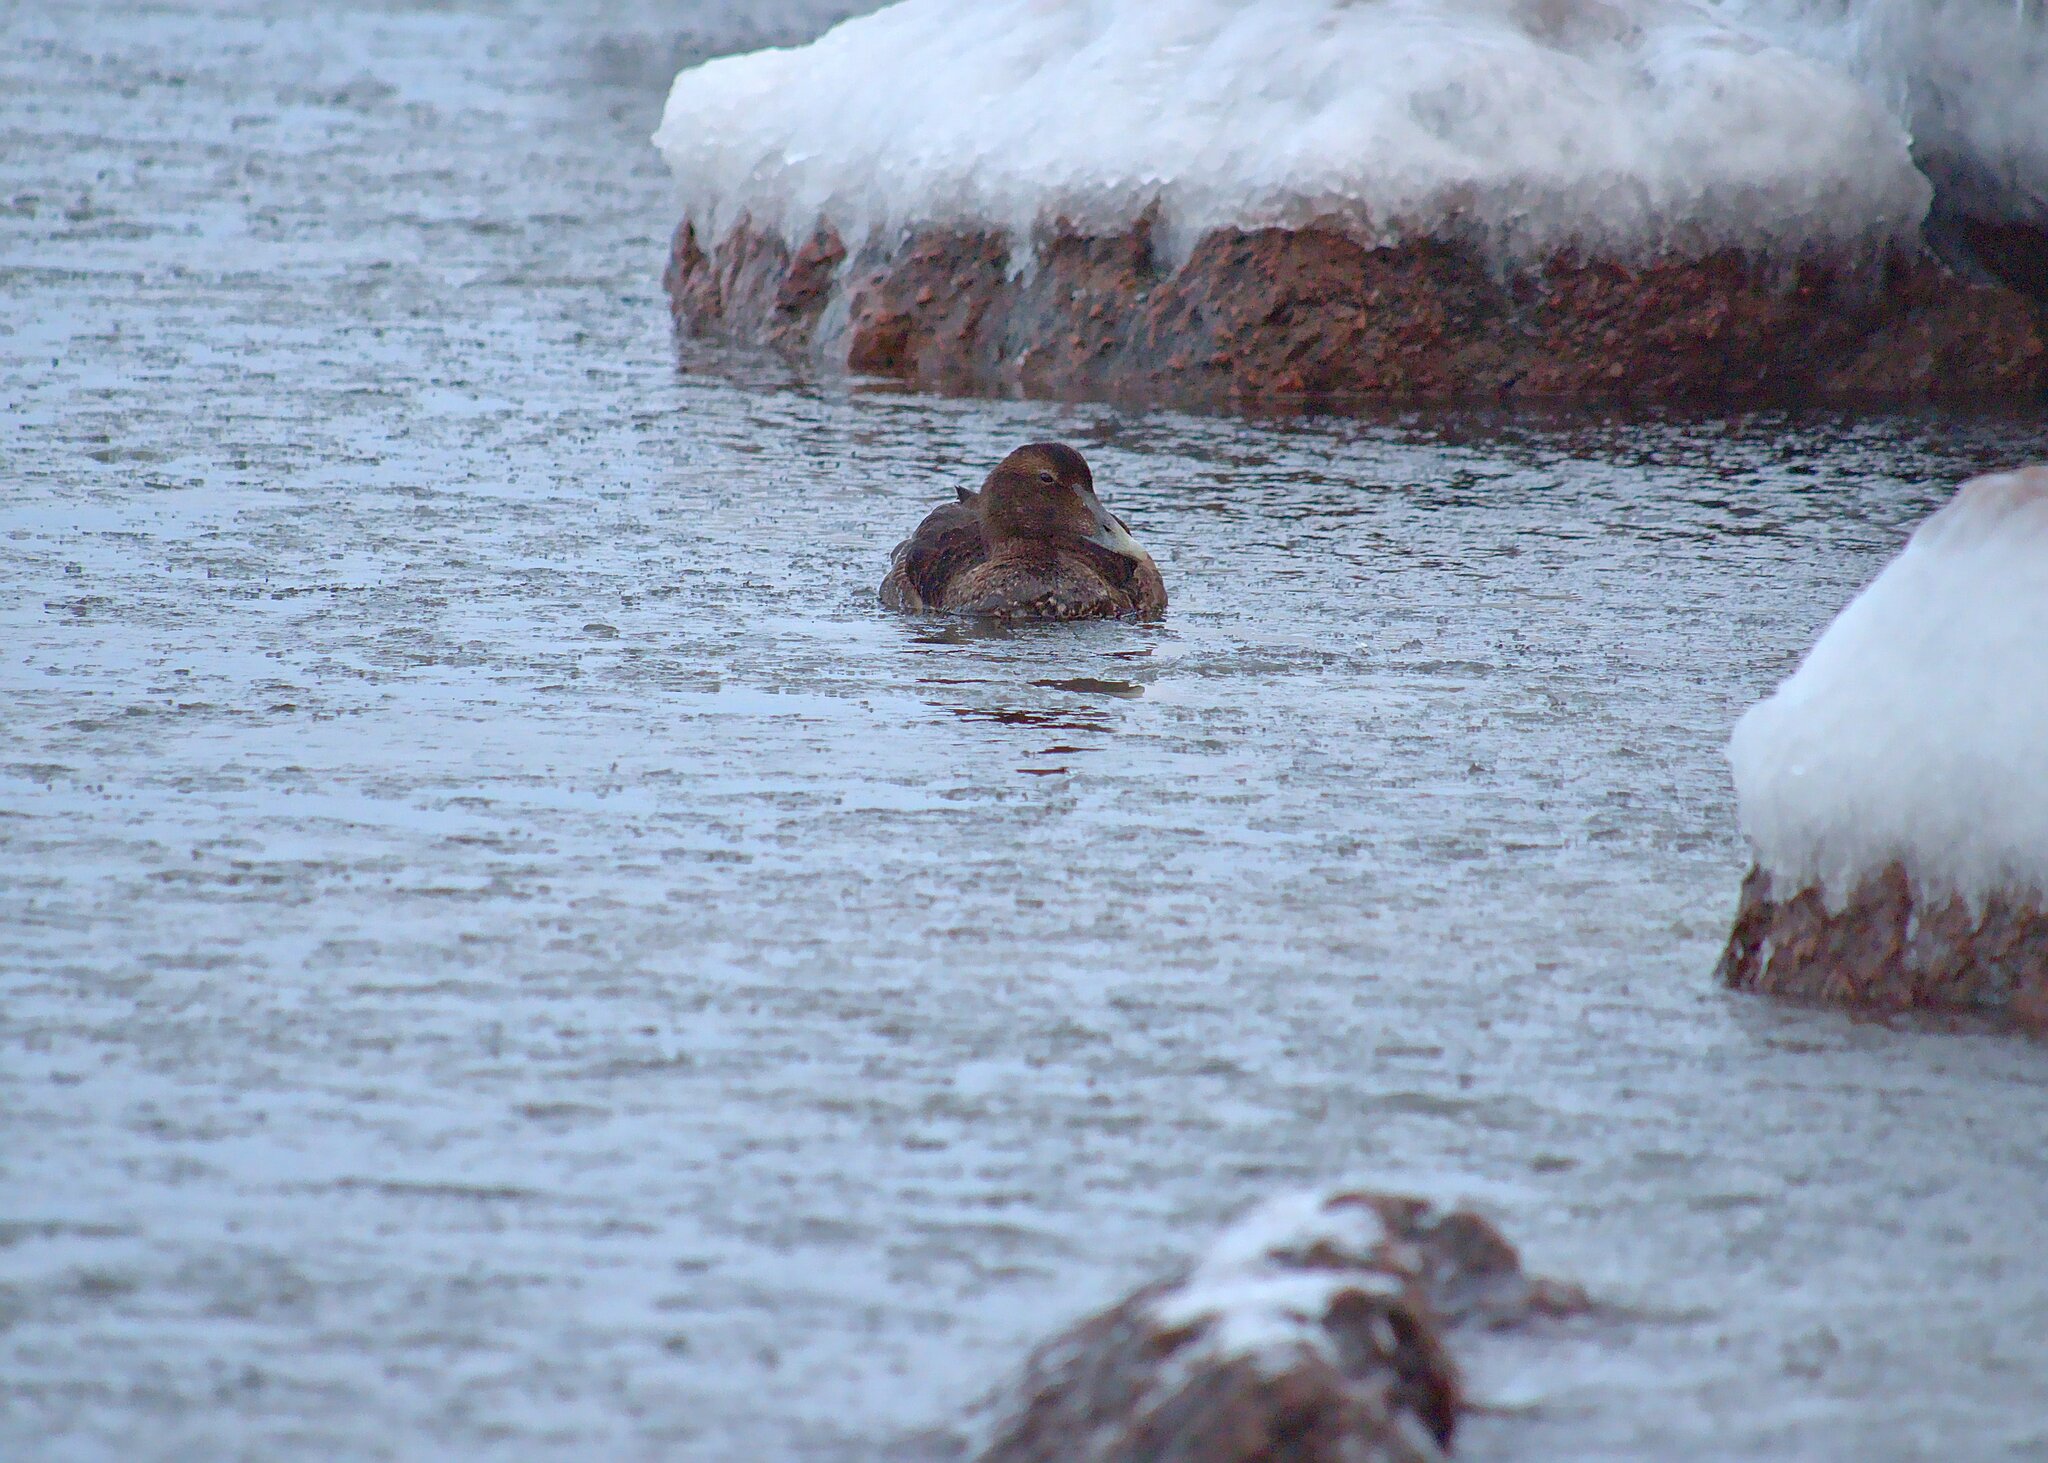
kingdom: Animalia
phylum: Chordata
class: Aves
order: Anseriformes
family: Anatidae
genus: Somateria
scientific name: Somateria mollissima
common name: Common eider
